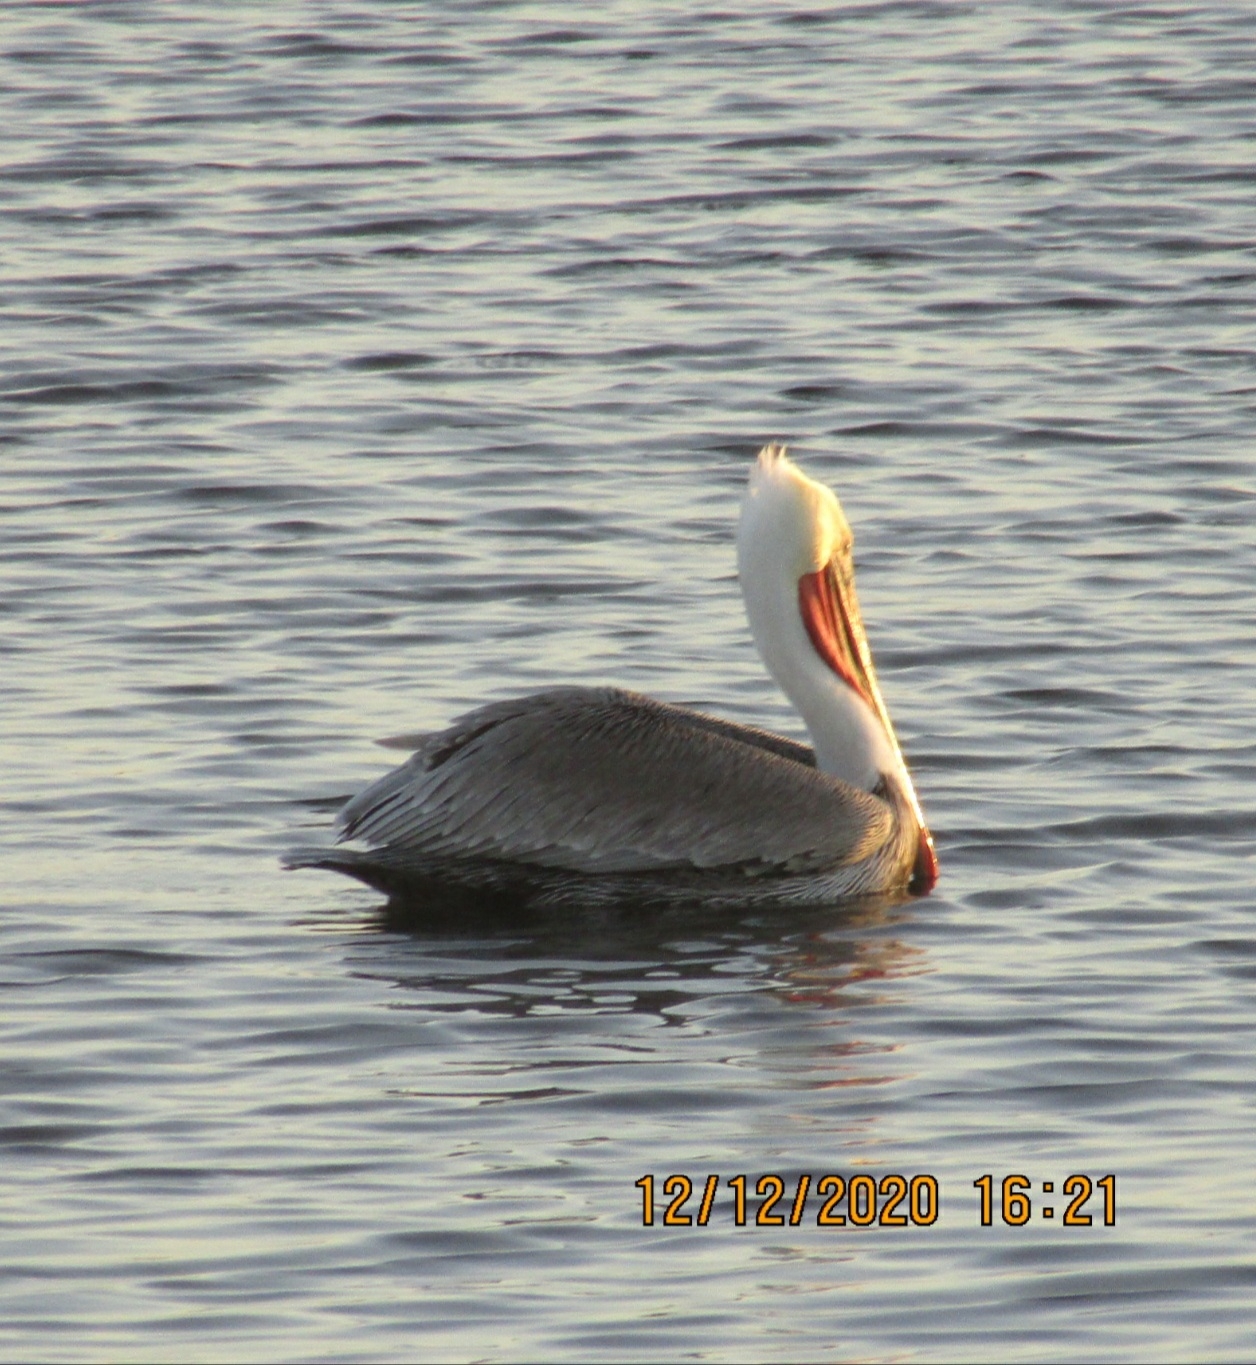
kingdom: Animalia
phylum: Chordata
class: Aves
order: Pelecaniformes
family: Pelecanidae
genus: Pelecanus
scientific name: Pelecanus occidentalis
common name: Brown pelican
